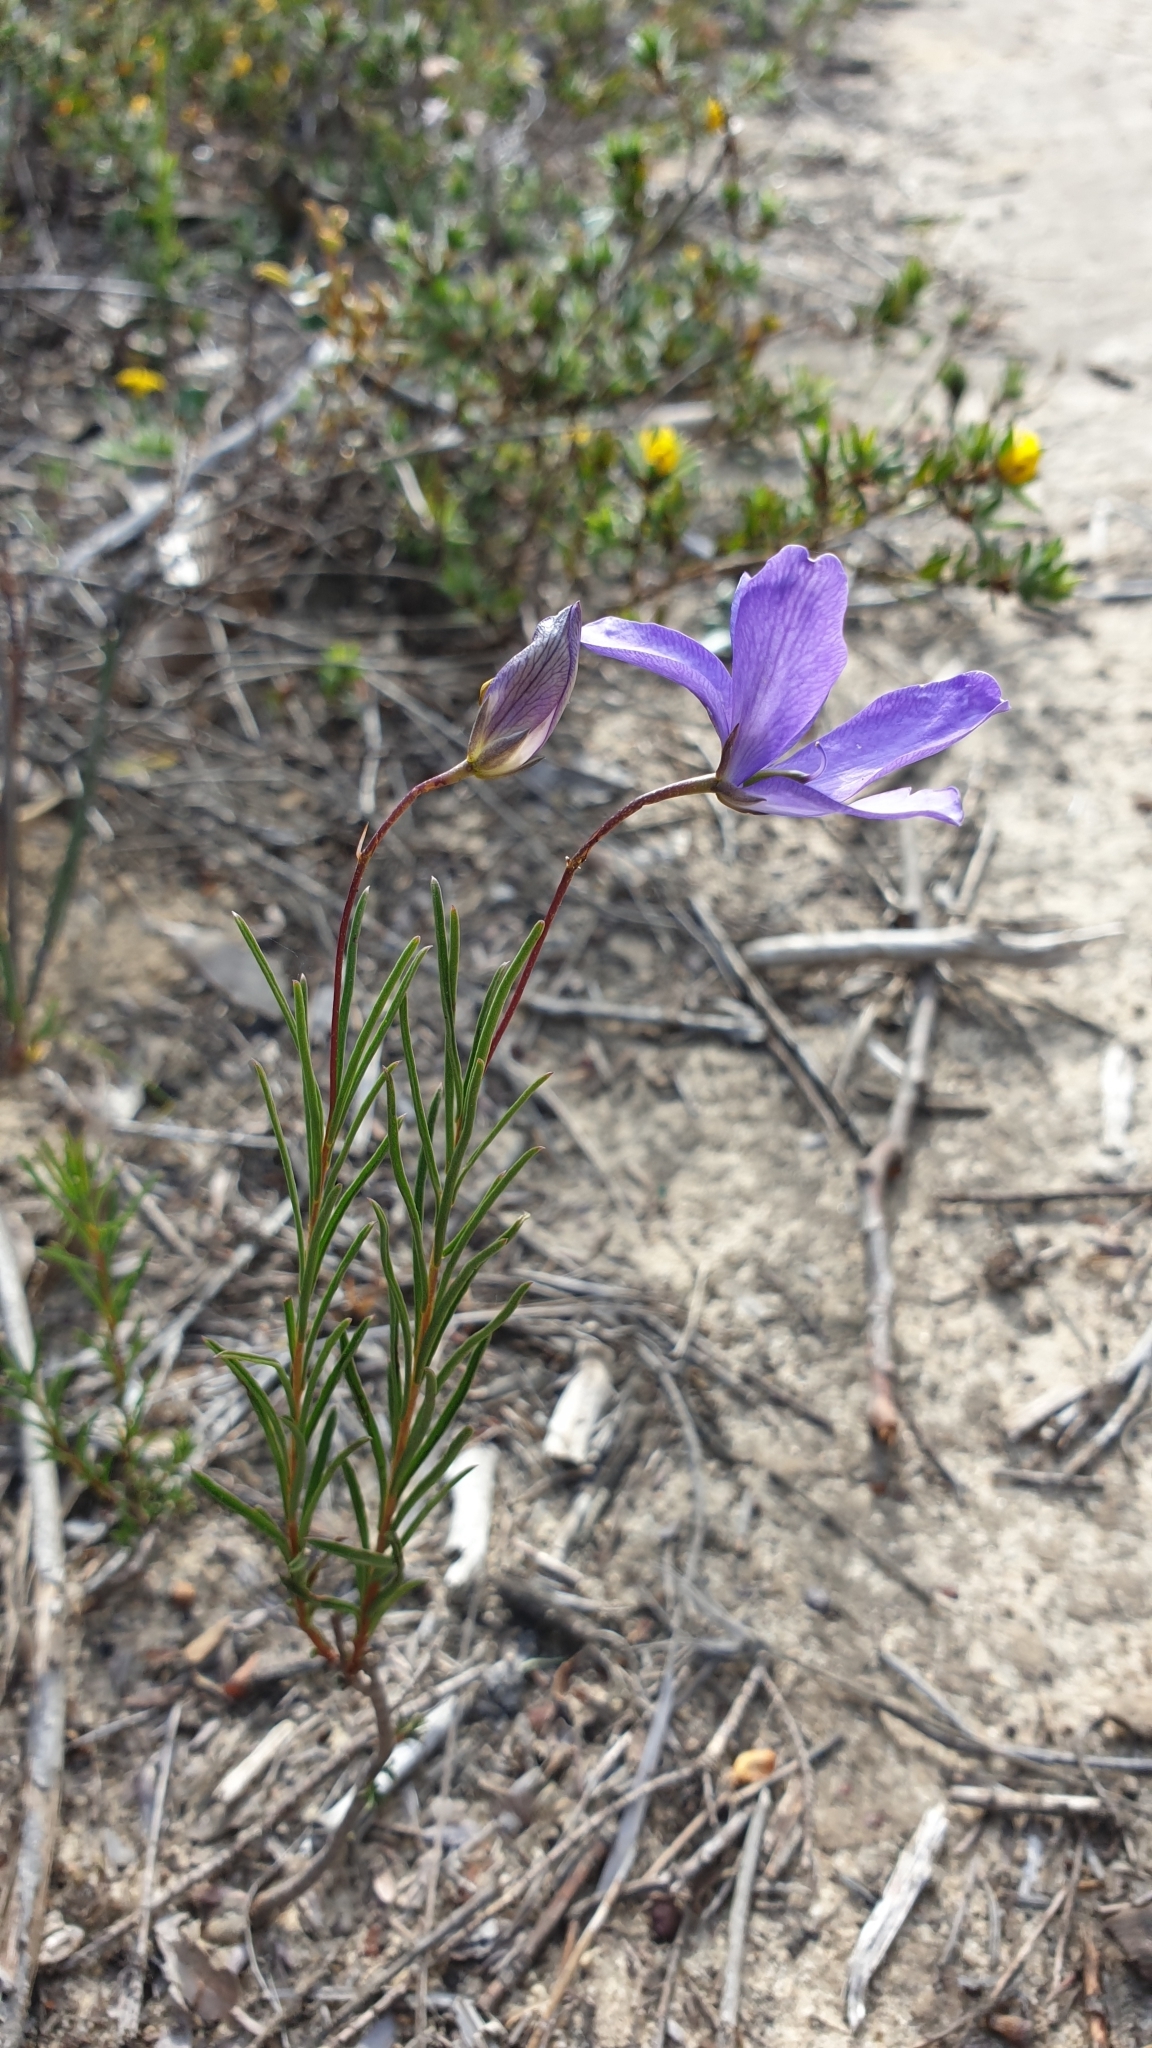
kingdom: Plantae
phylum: Tracheophyta
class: Magnoliopsida
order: Apiales
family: Pittosporaceae
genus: Cheiranthera
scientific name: Cheiranthera alternifolia
